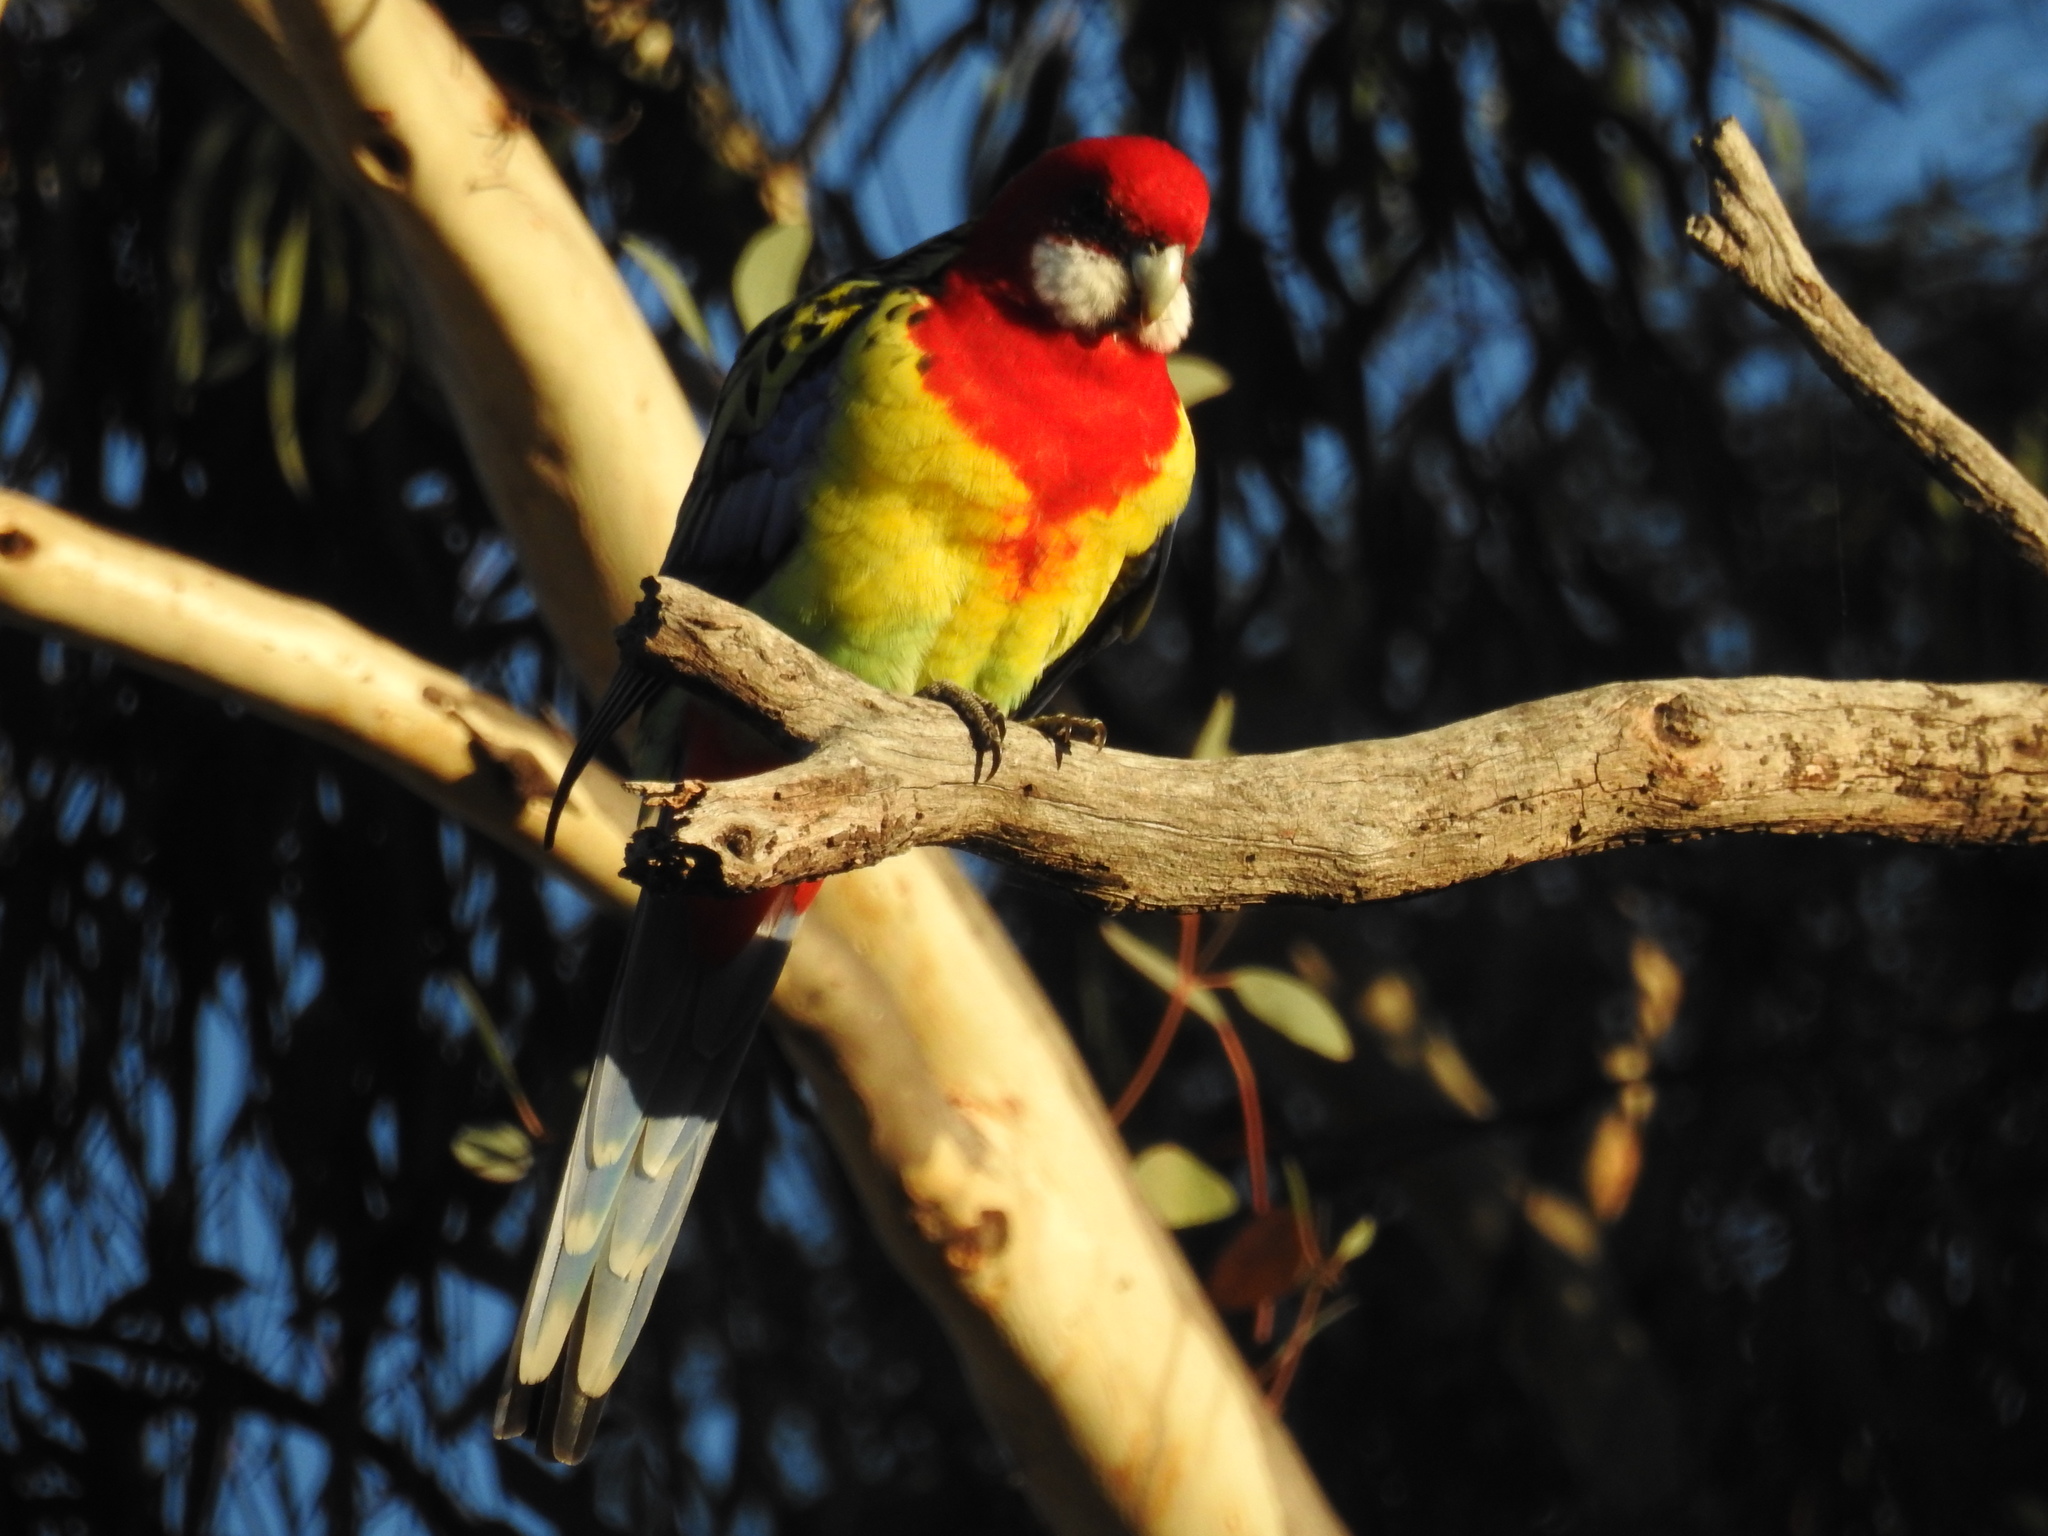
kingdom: Animalia
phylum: Chordata
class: Aves
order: Psittaciformes
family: Psittacidae
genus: Platycercus
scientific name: Platycercus eximius
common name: Eastern rosella
